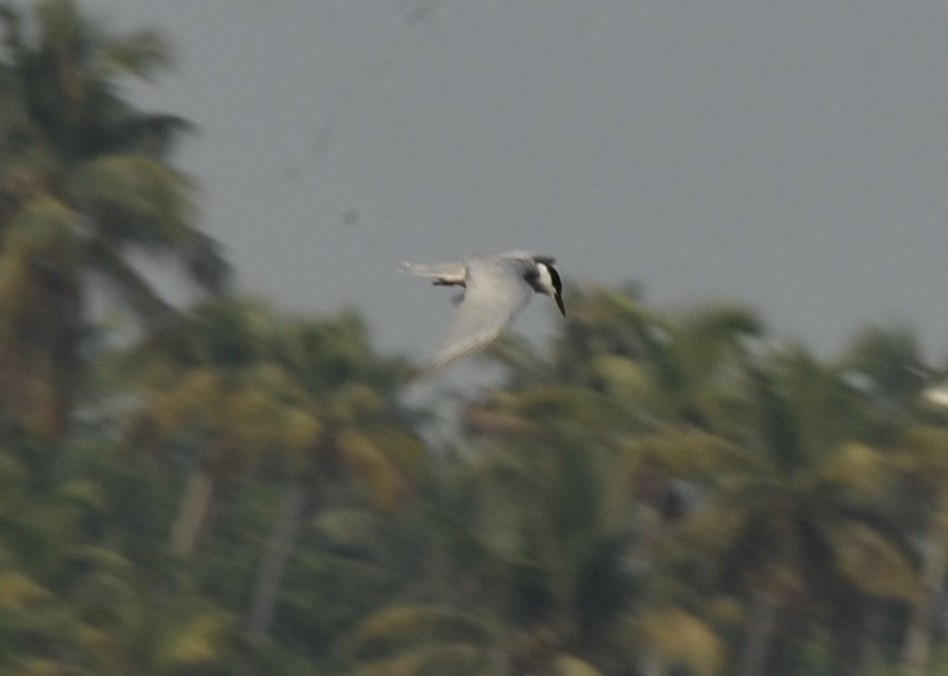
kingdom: Animalia
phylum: Chordata
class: Aves
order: Charadriiformes
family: Laridae
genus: Chlidonias
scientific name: Chlidonias hybrida
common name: Whiskered tern
